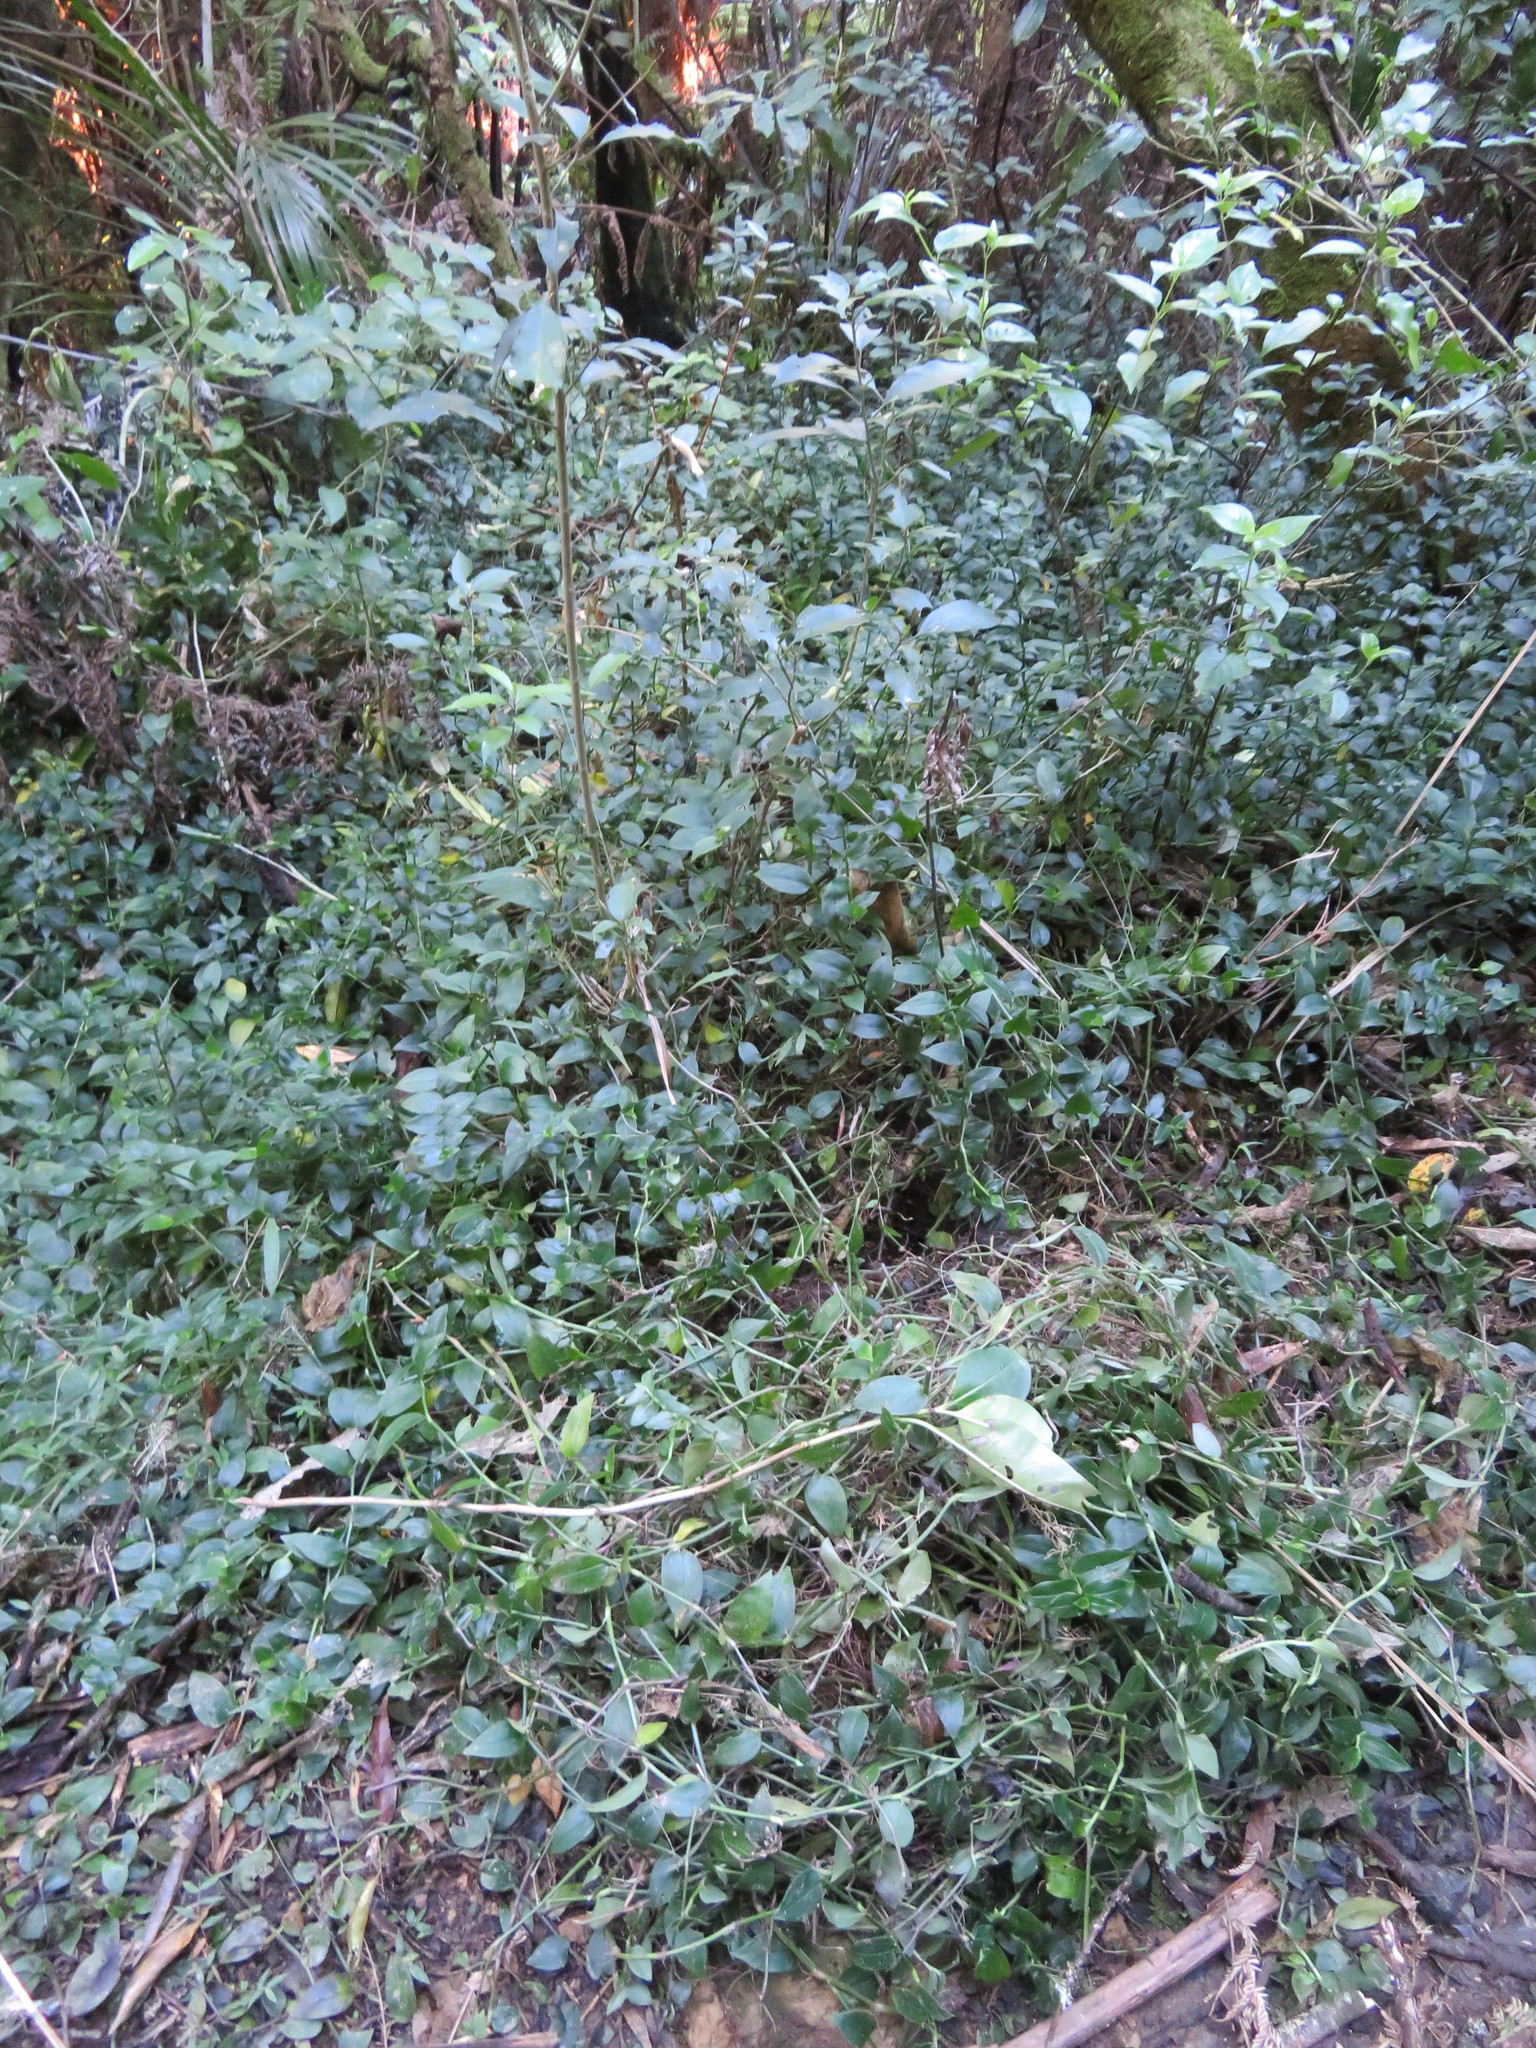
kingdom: Plantae
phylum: Tracheophyta
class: Liliopsida
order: Commelinales
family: Commelinaceae
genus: Tradescantia
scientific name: Tradescantia fluminensis
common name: Wandering-jew
